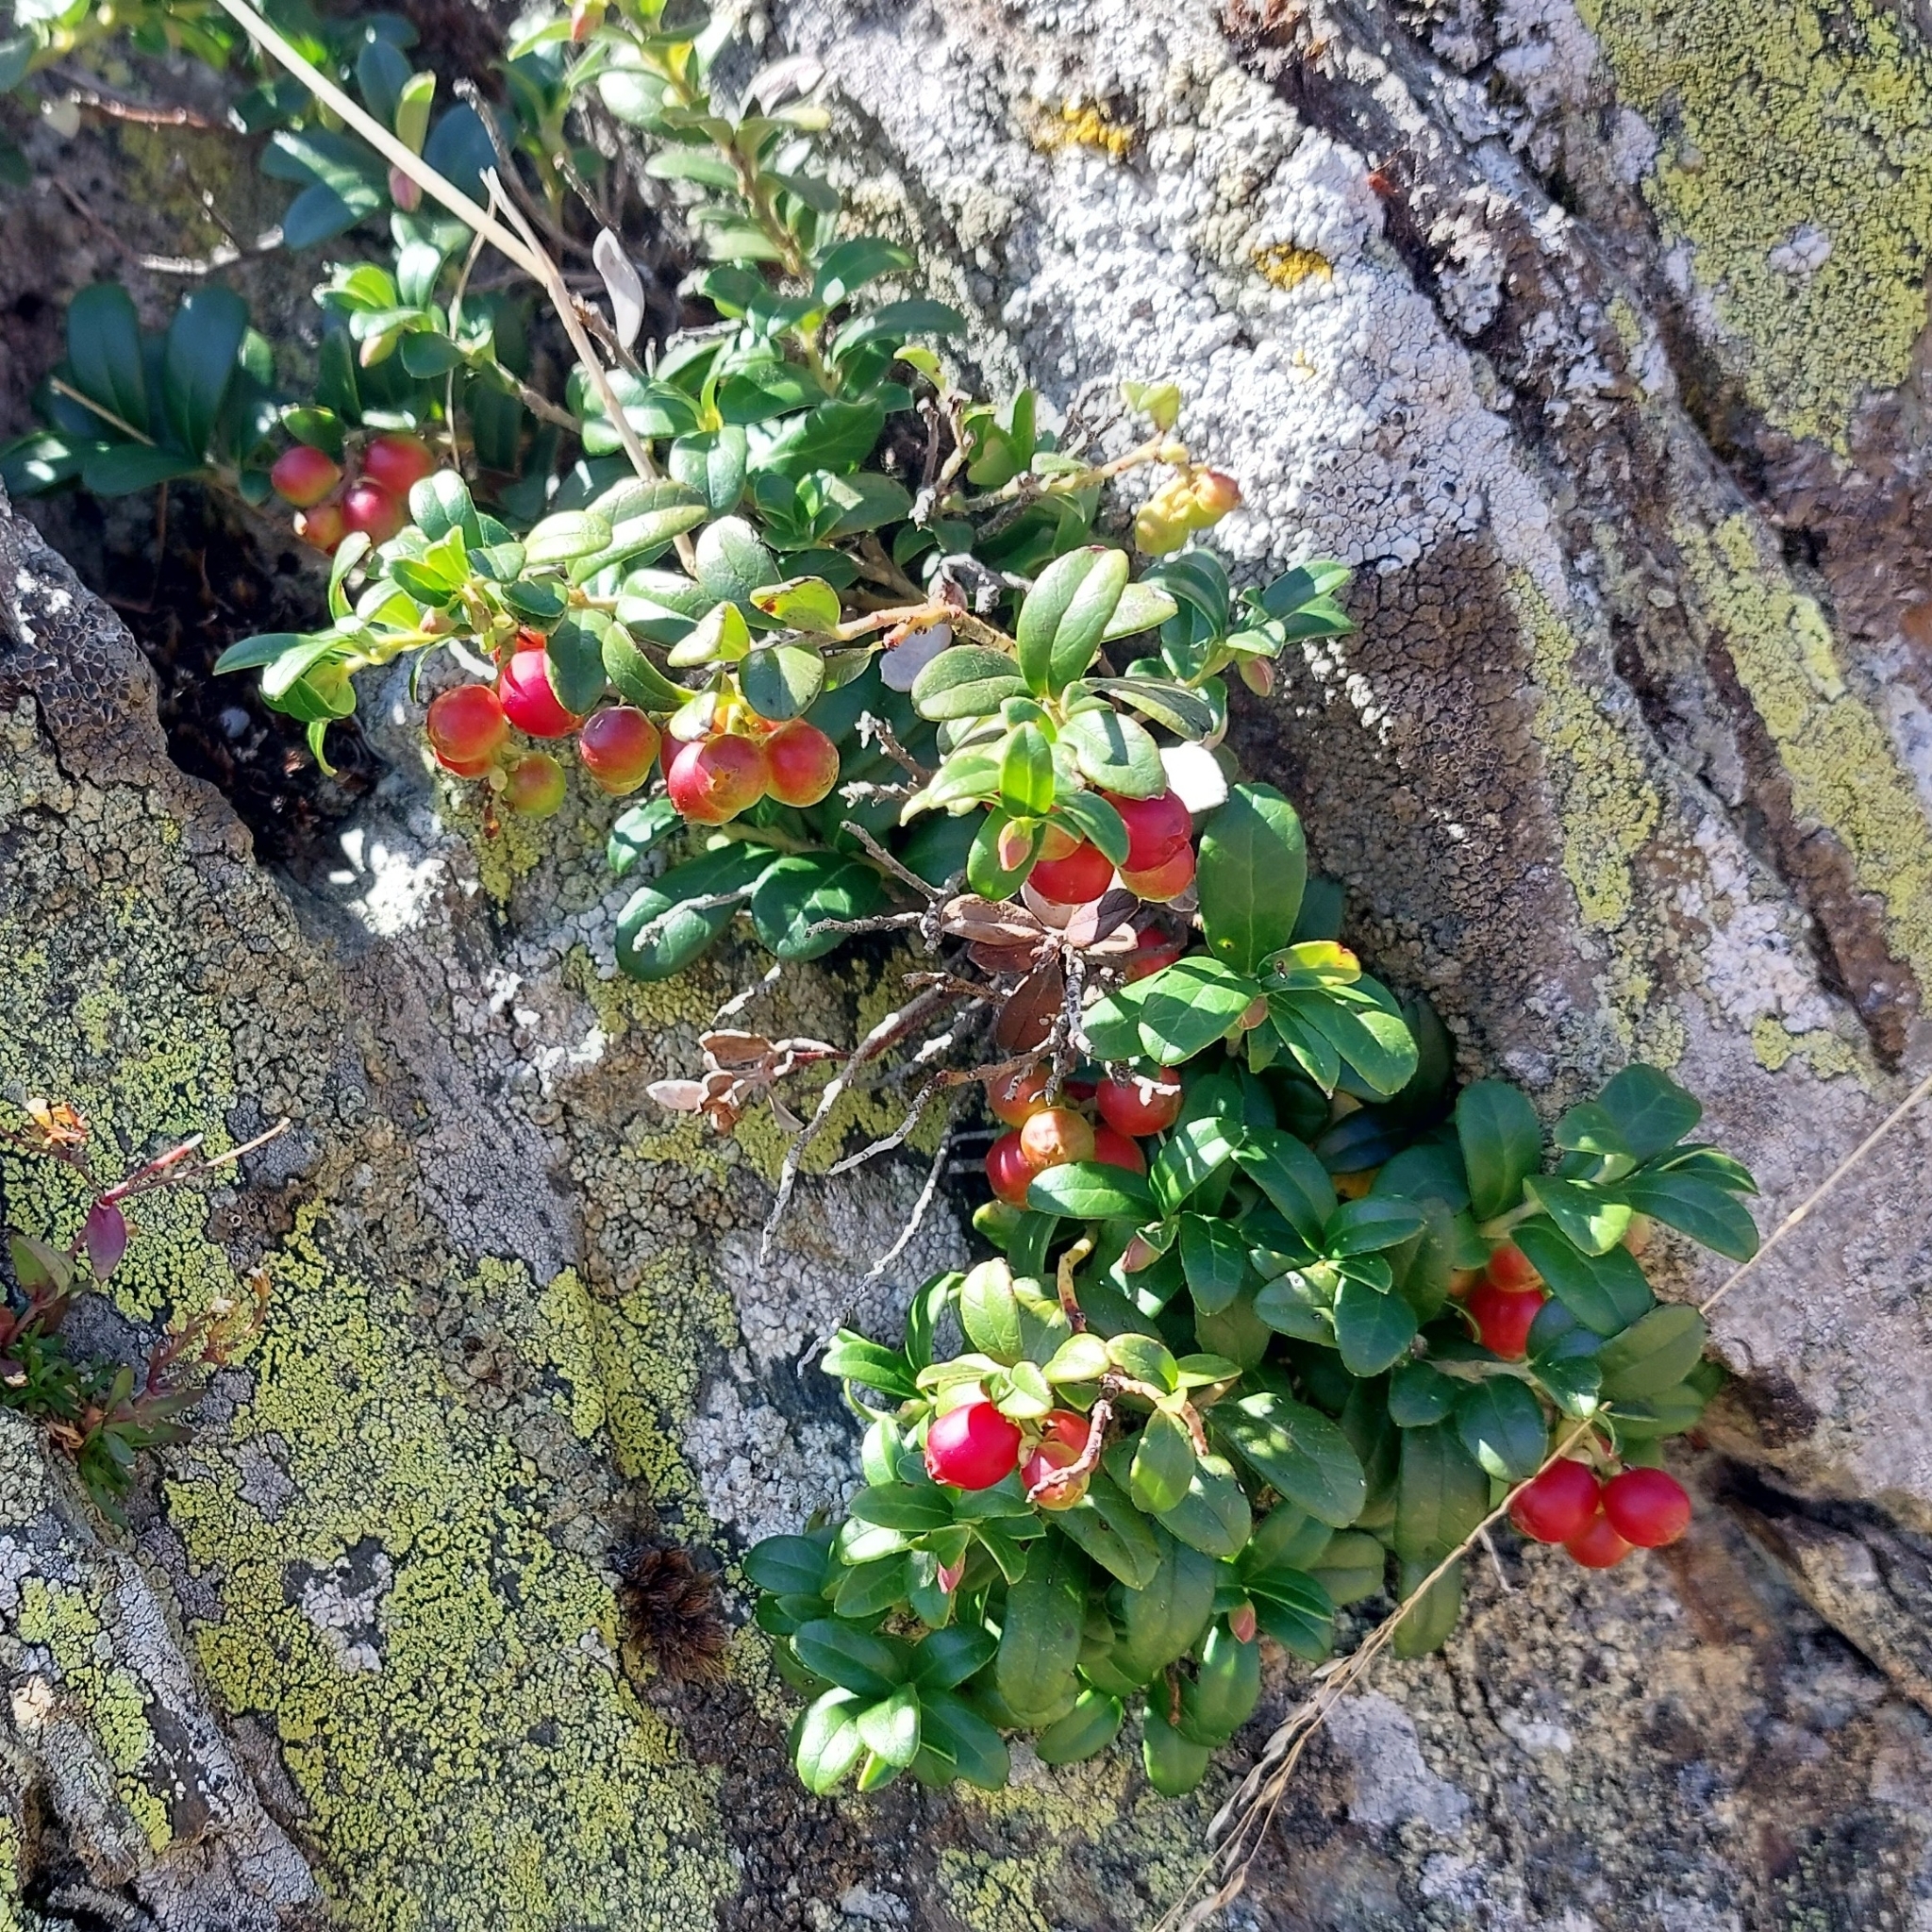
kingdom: Plantae
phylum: Tracheophyta
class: Magnoliopsida
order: Ericales
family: Ericaceae
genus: Vaccinium
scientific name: Vaccinium vitis-idaea
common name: Cowberry
